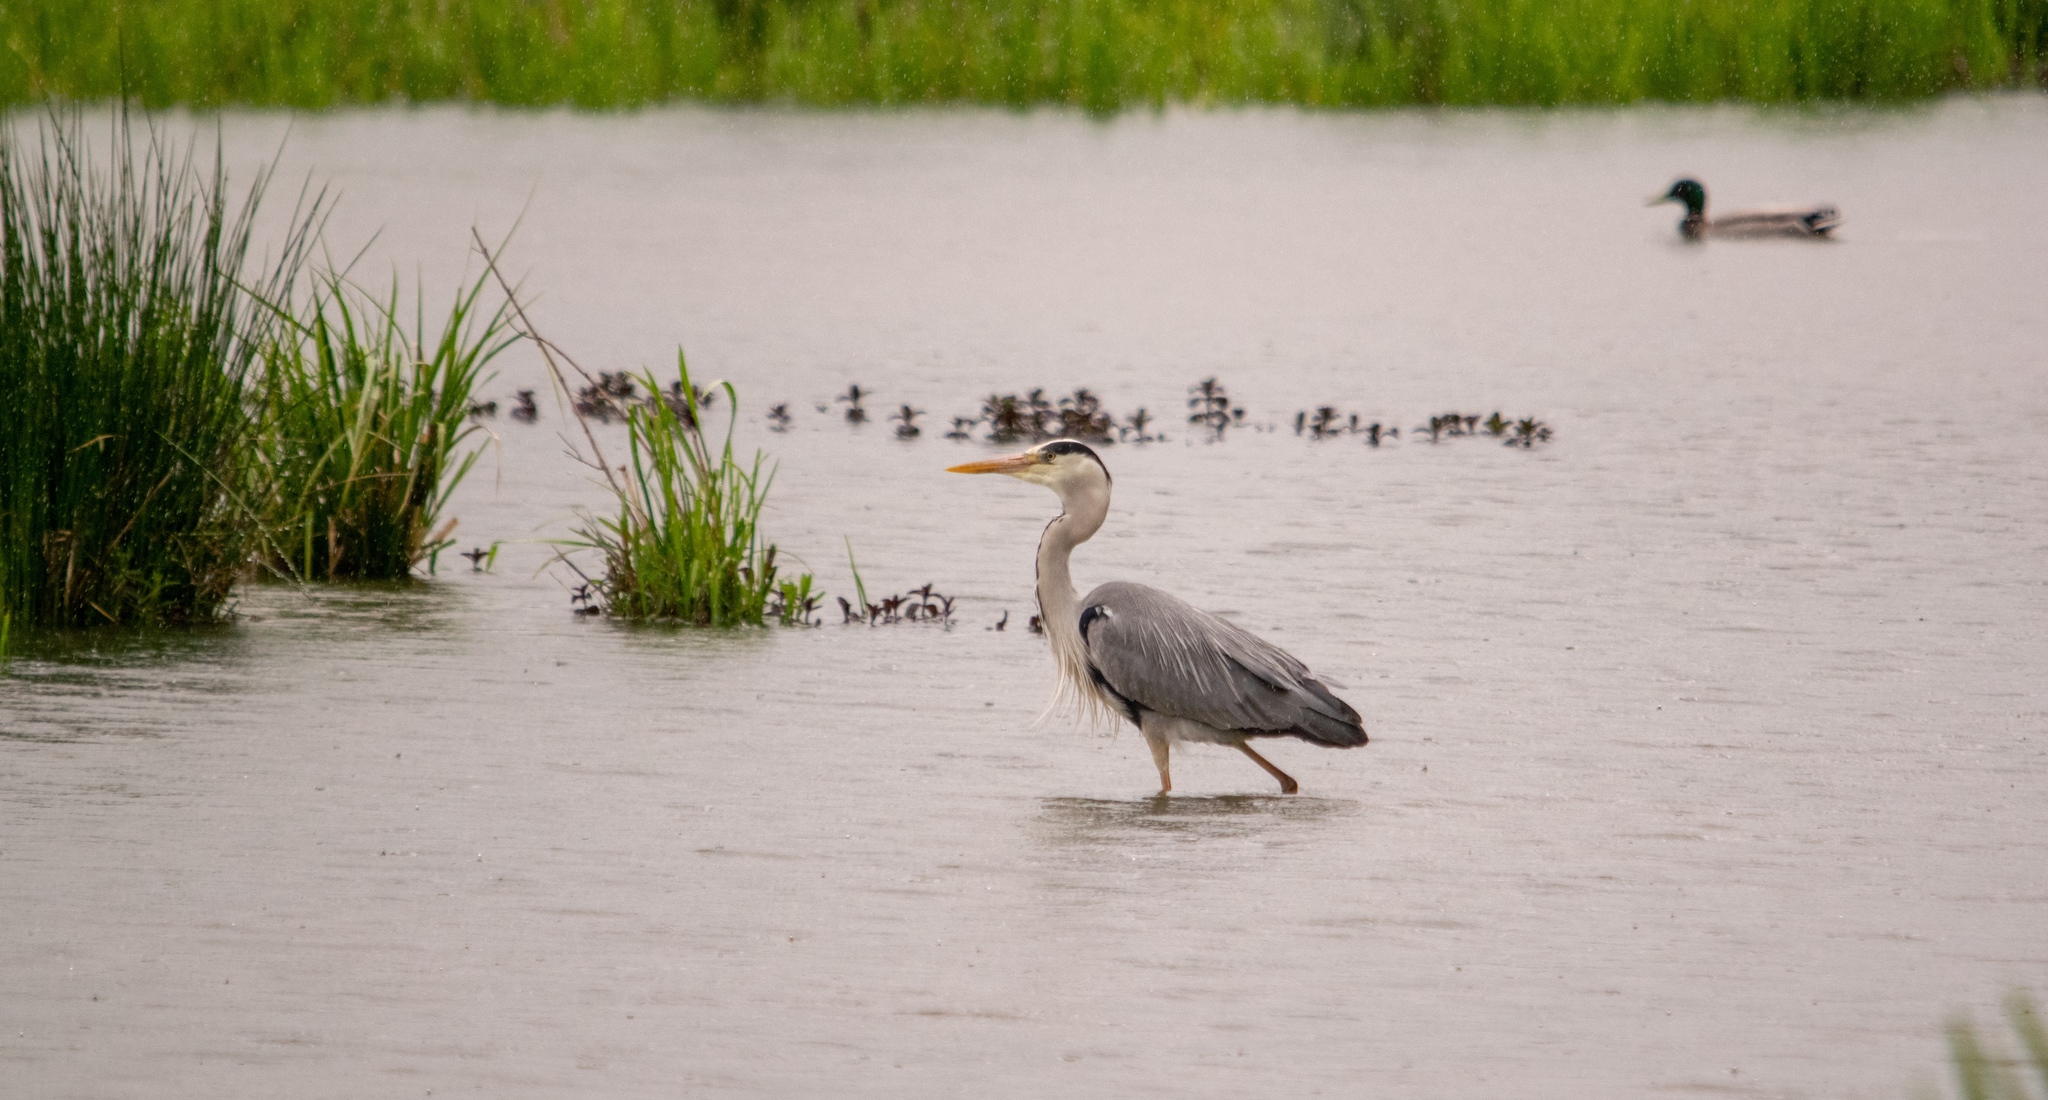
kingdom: Animalia
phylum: Chordata
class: Aves
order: Pelecaniformes
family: Ardeidae
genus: Ardea
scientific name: Ardea cinerea
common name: Grey heron
